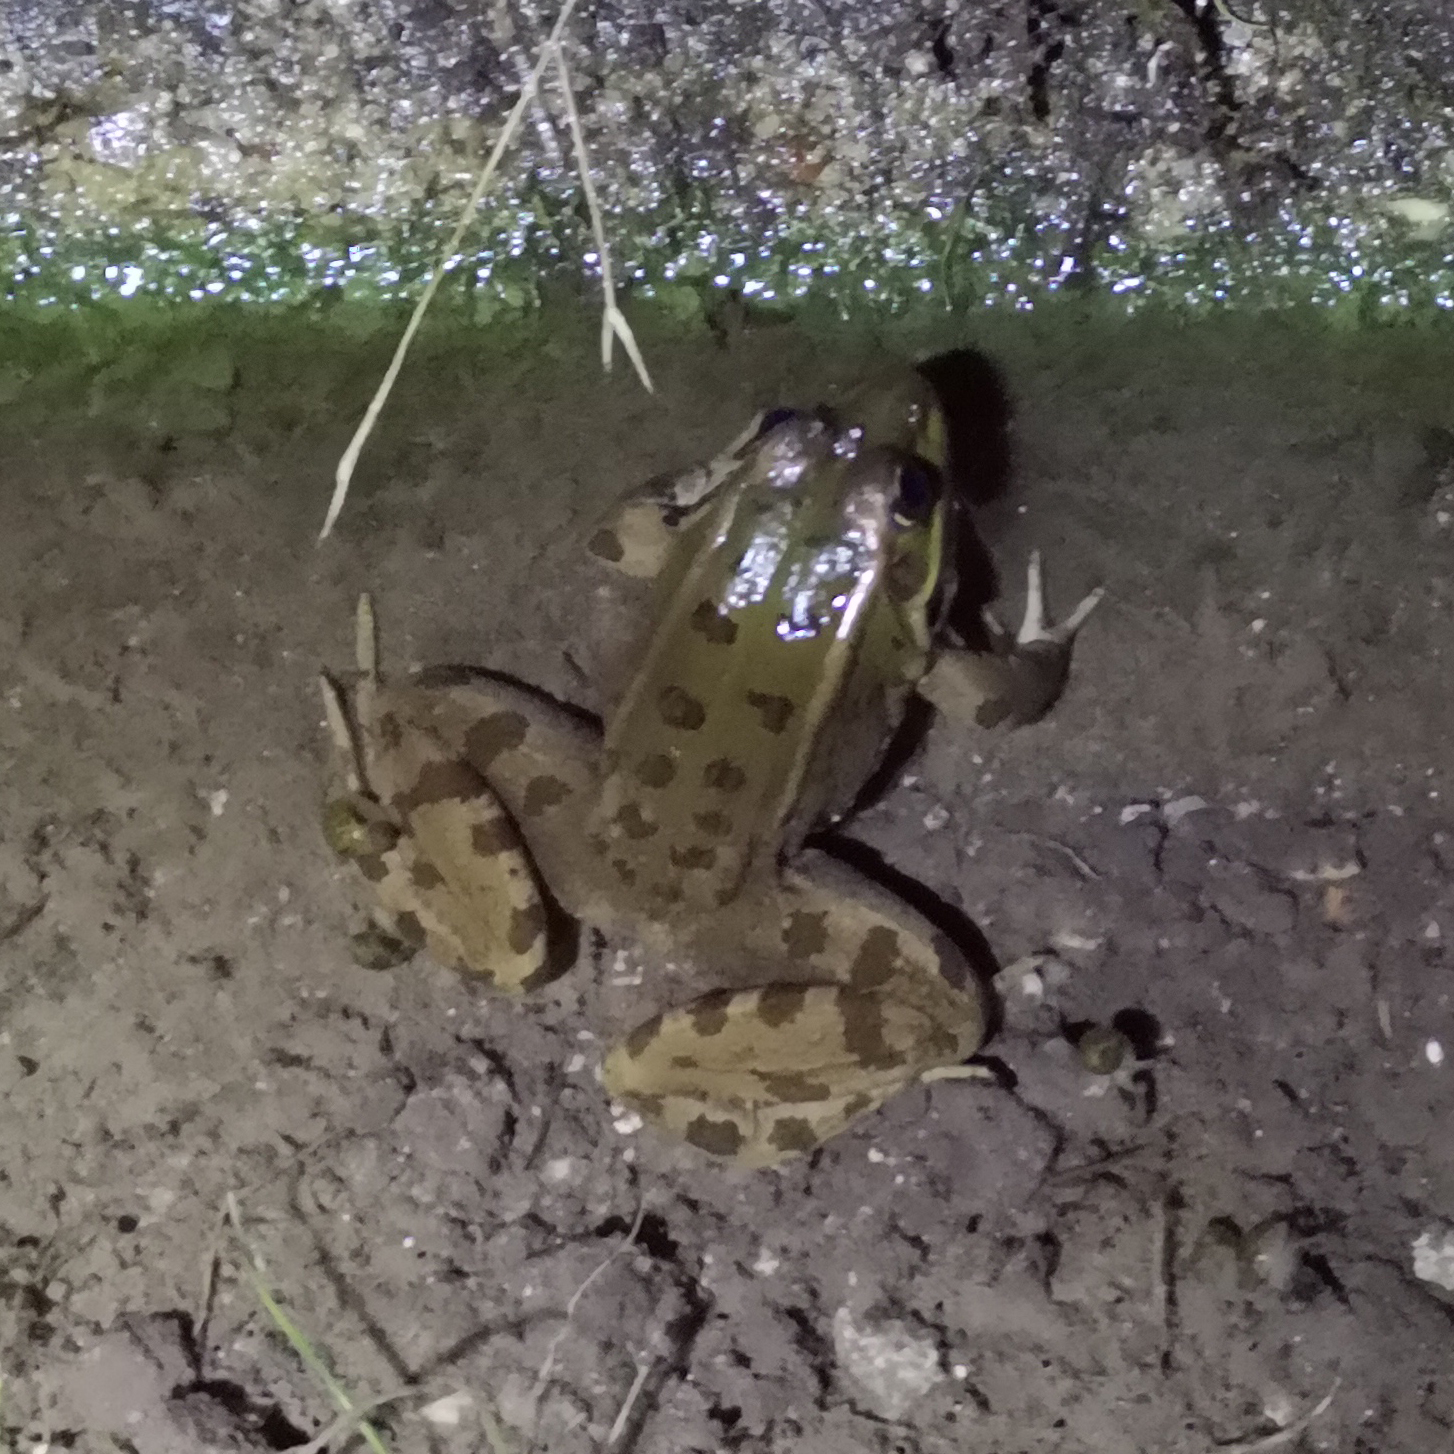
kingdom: Animalia
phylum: Chordata
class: Amphibia
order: Anura
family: Ranidae
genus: Pelophylax
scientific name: Pelophylax perezi
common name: Perez's frog
